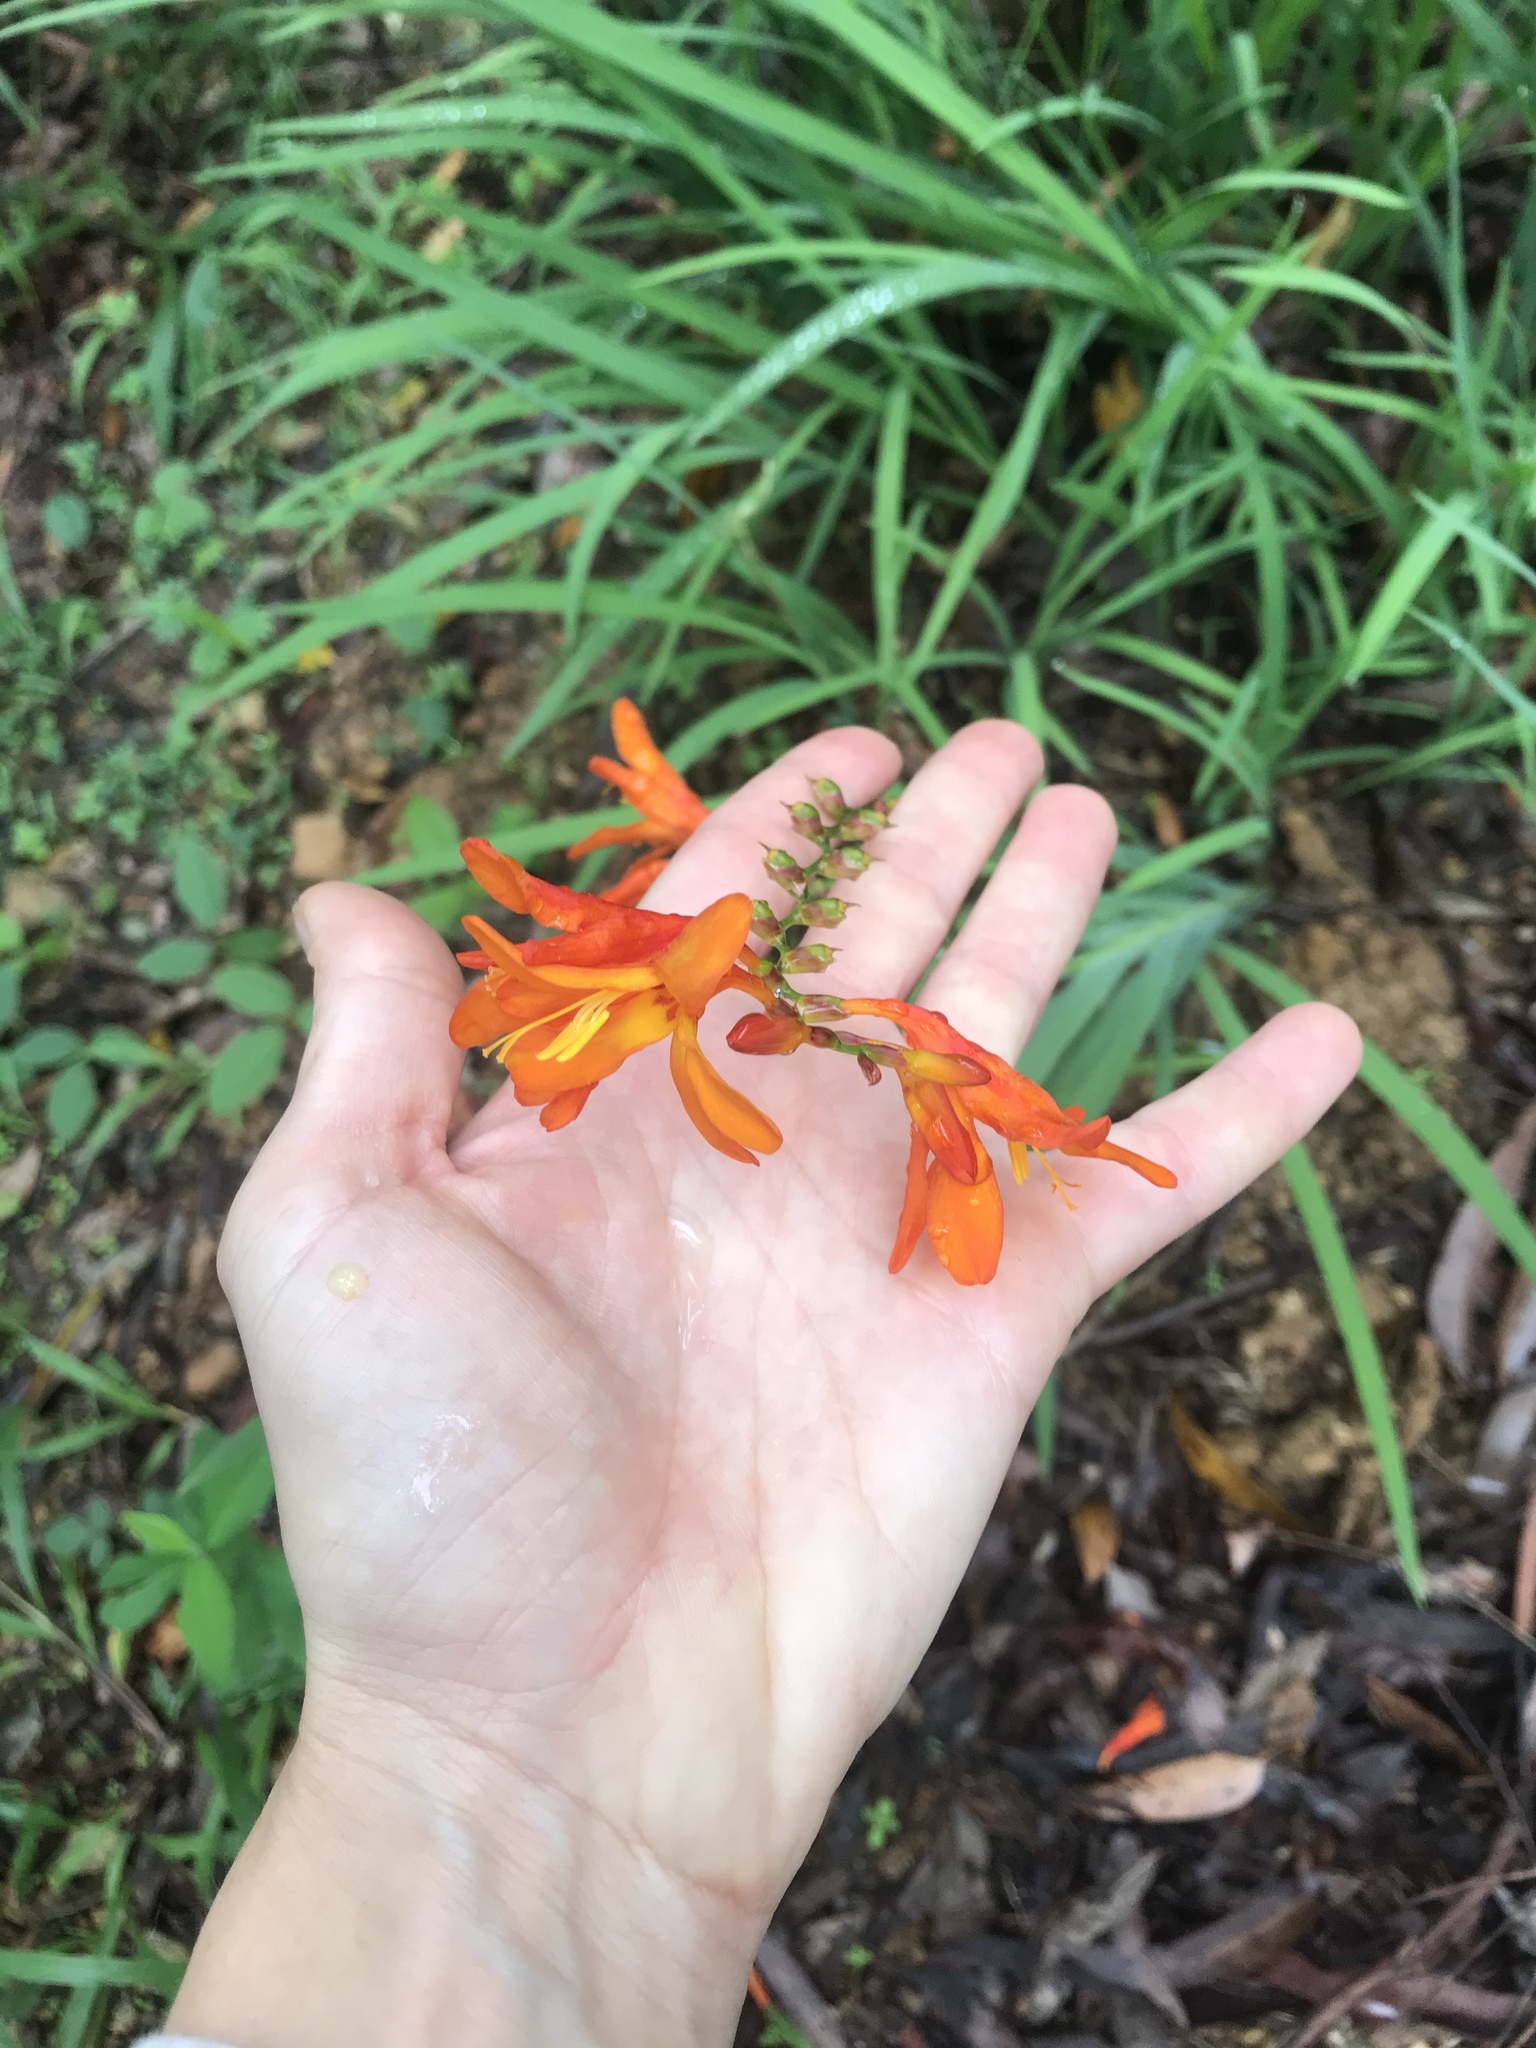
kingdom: Plantae
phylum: Tracheophyta
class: Liliopsida
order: Asparagales
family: Iridaceae
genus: Crocosmia
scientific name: Crocosmia crocosmiiflora
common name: Montbretia
